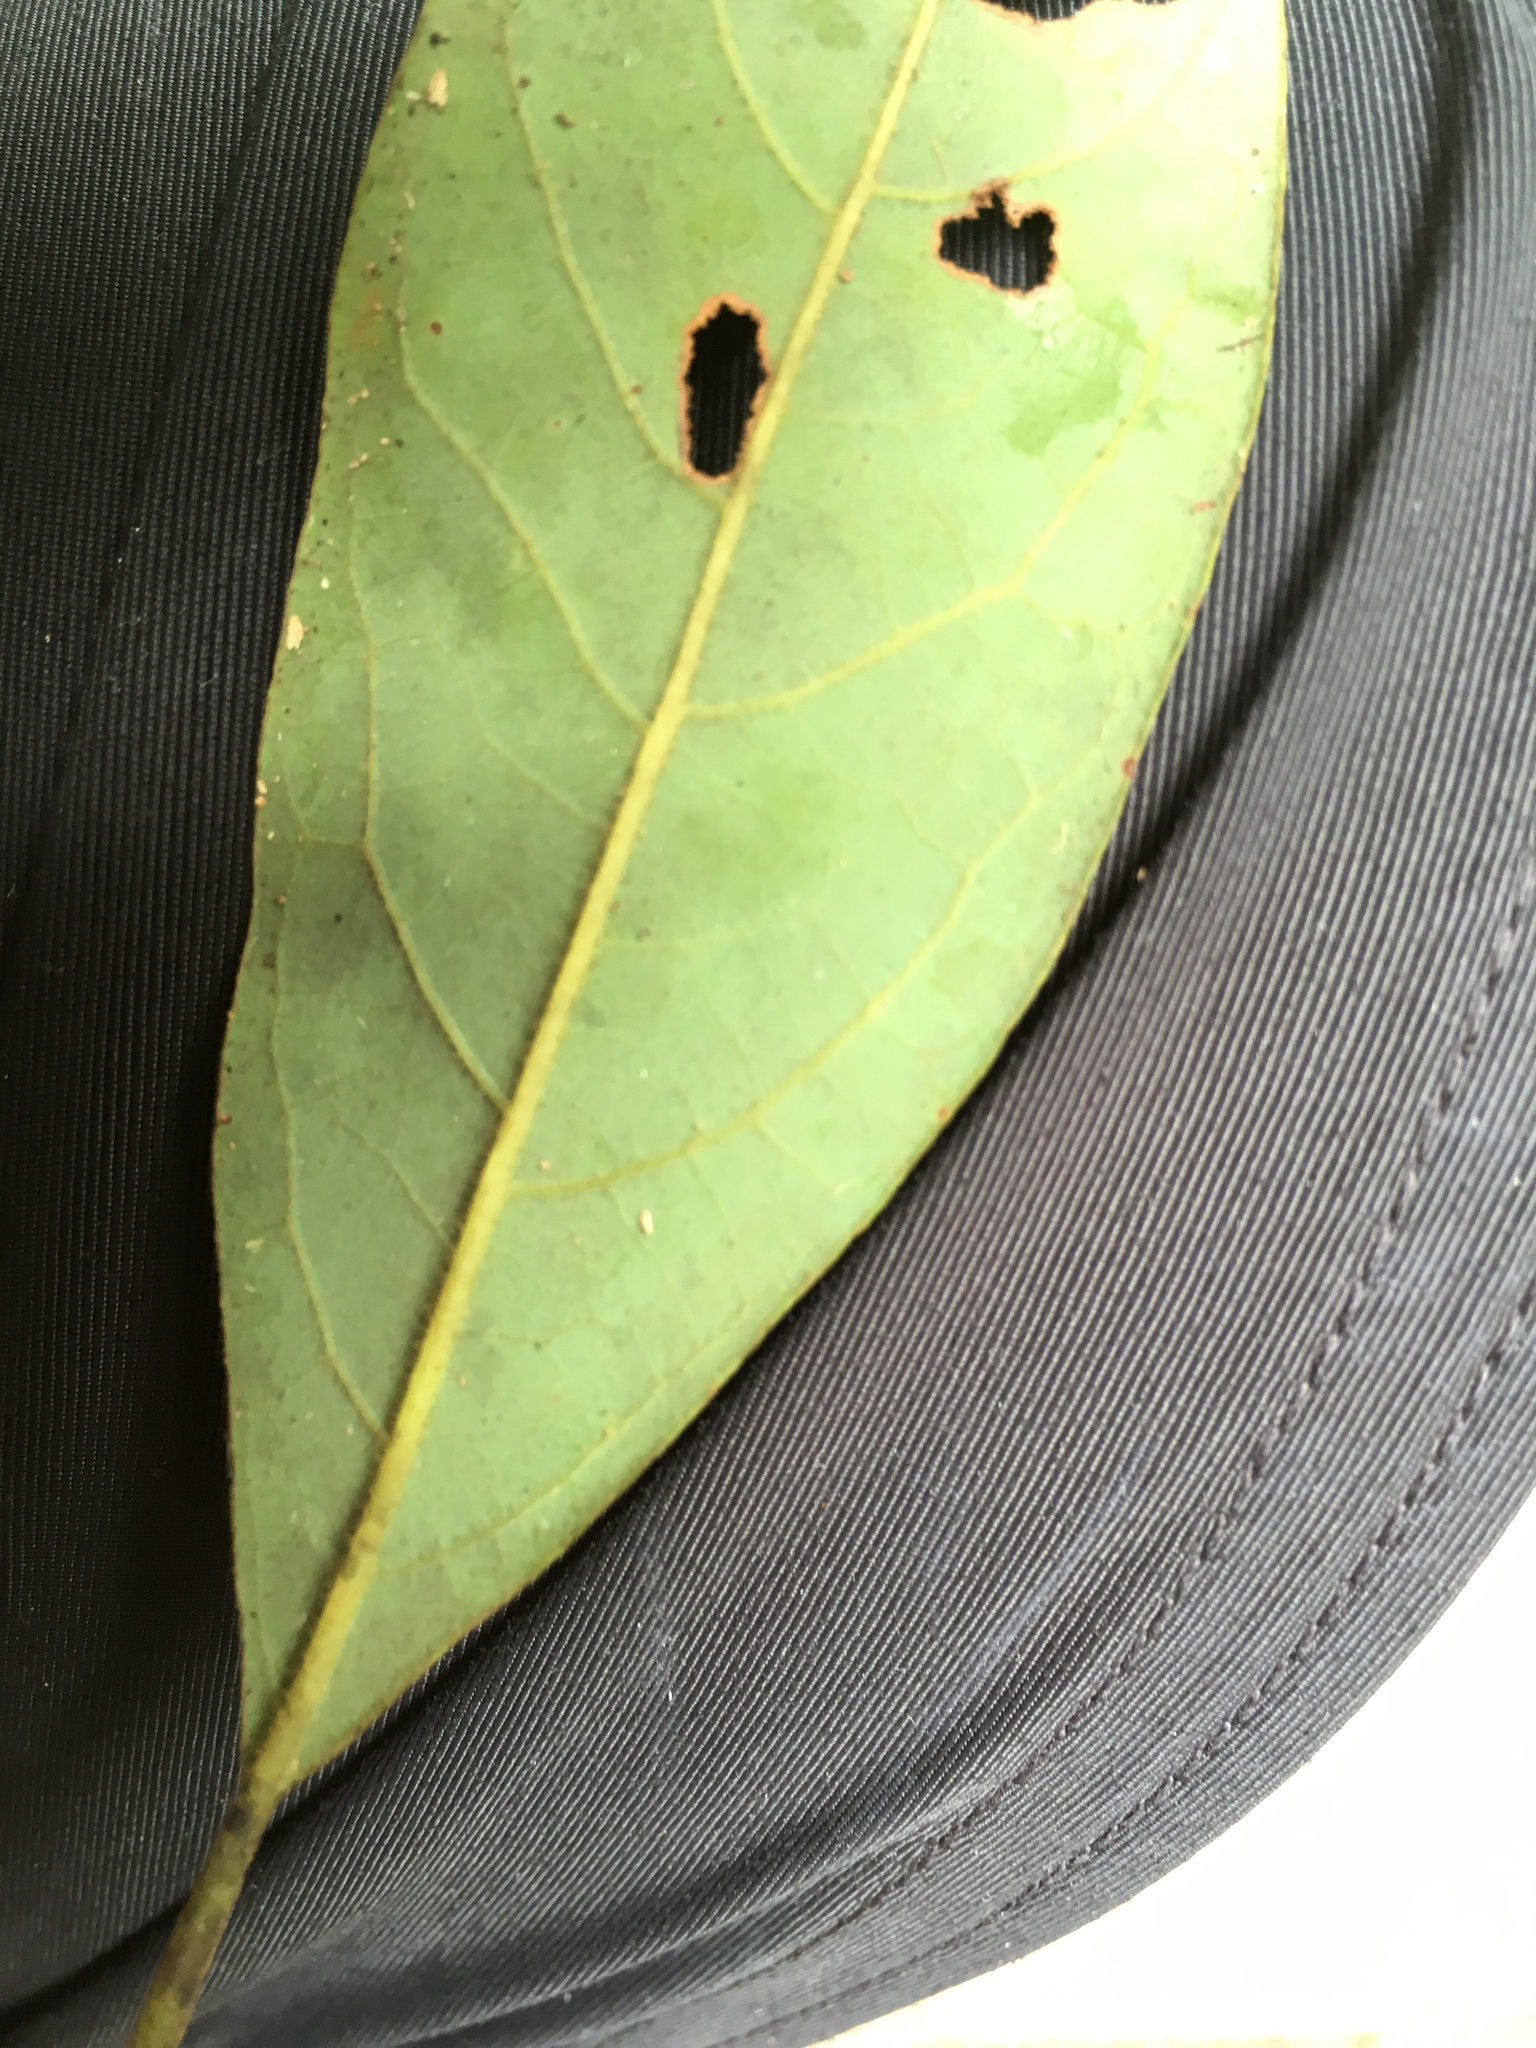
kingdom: Plantae
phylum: Tracheophyta
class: Magnoliopsida
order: Laurales
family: Lauraceae
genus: Persea
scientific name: Persea palustris
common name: Swampbay
